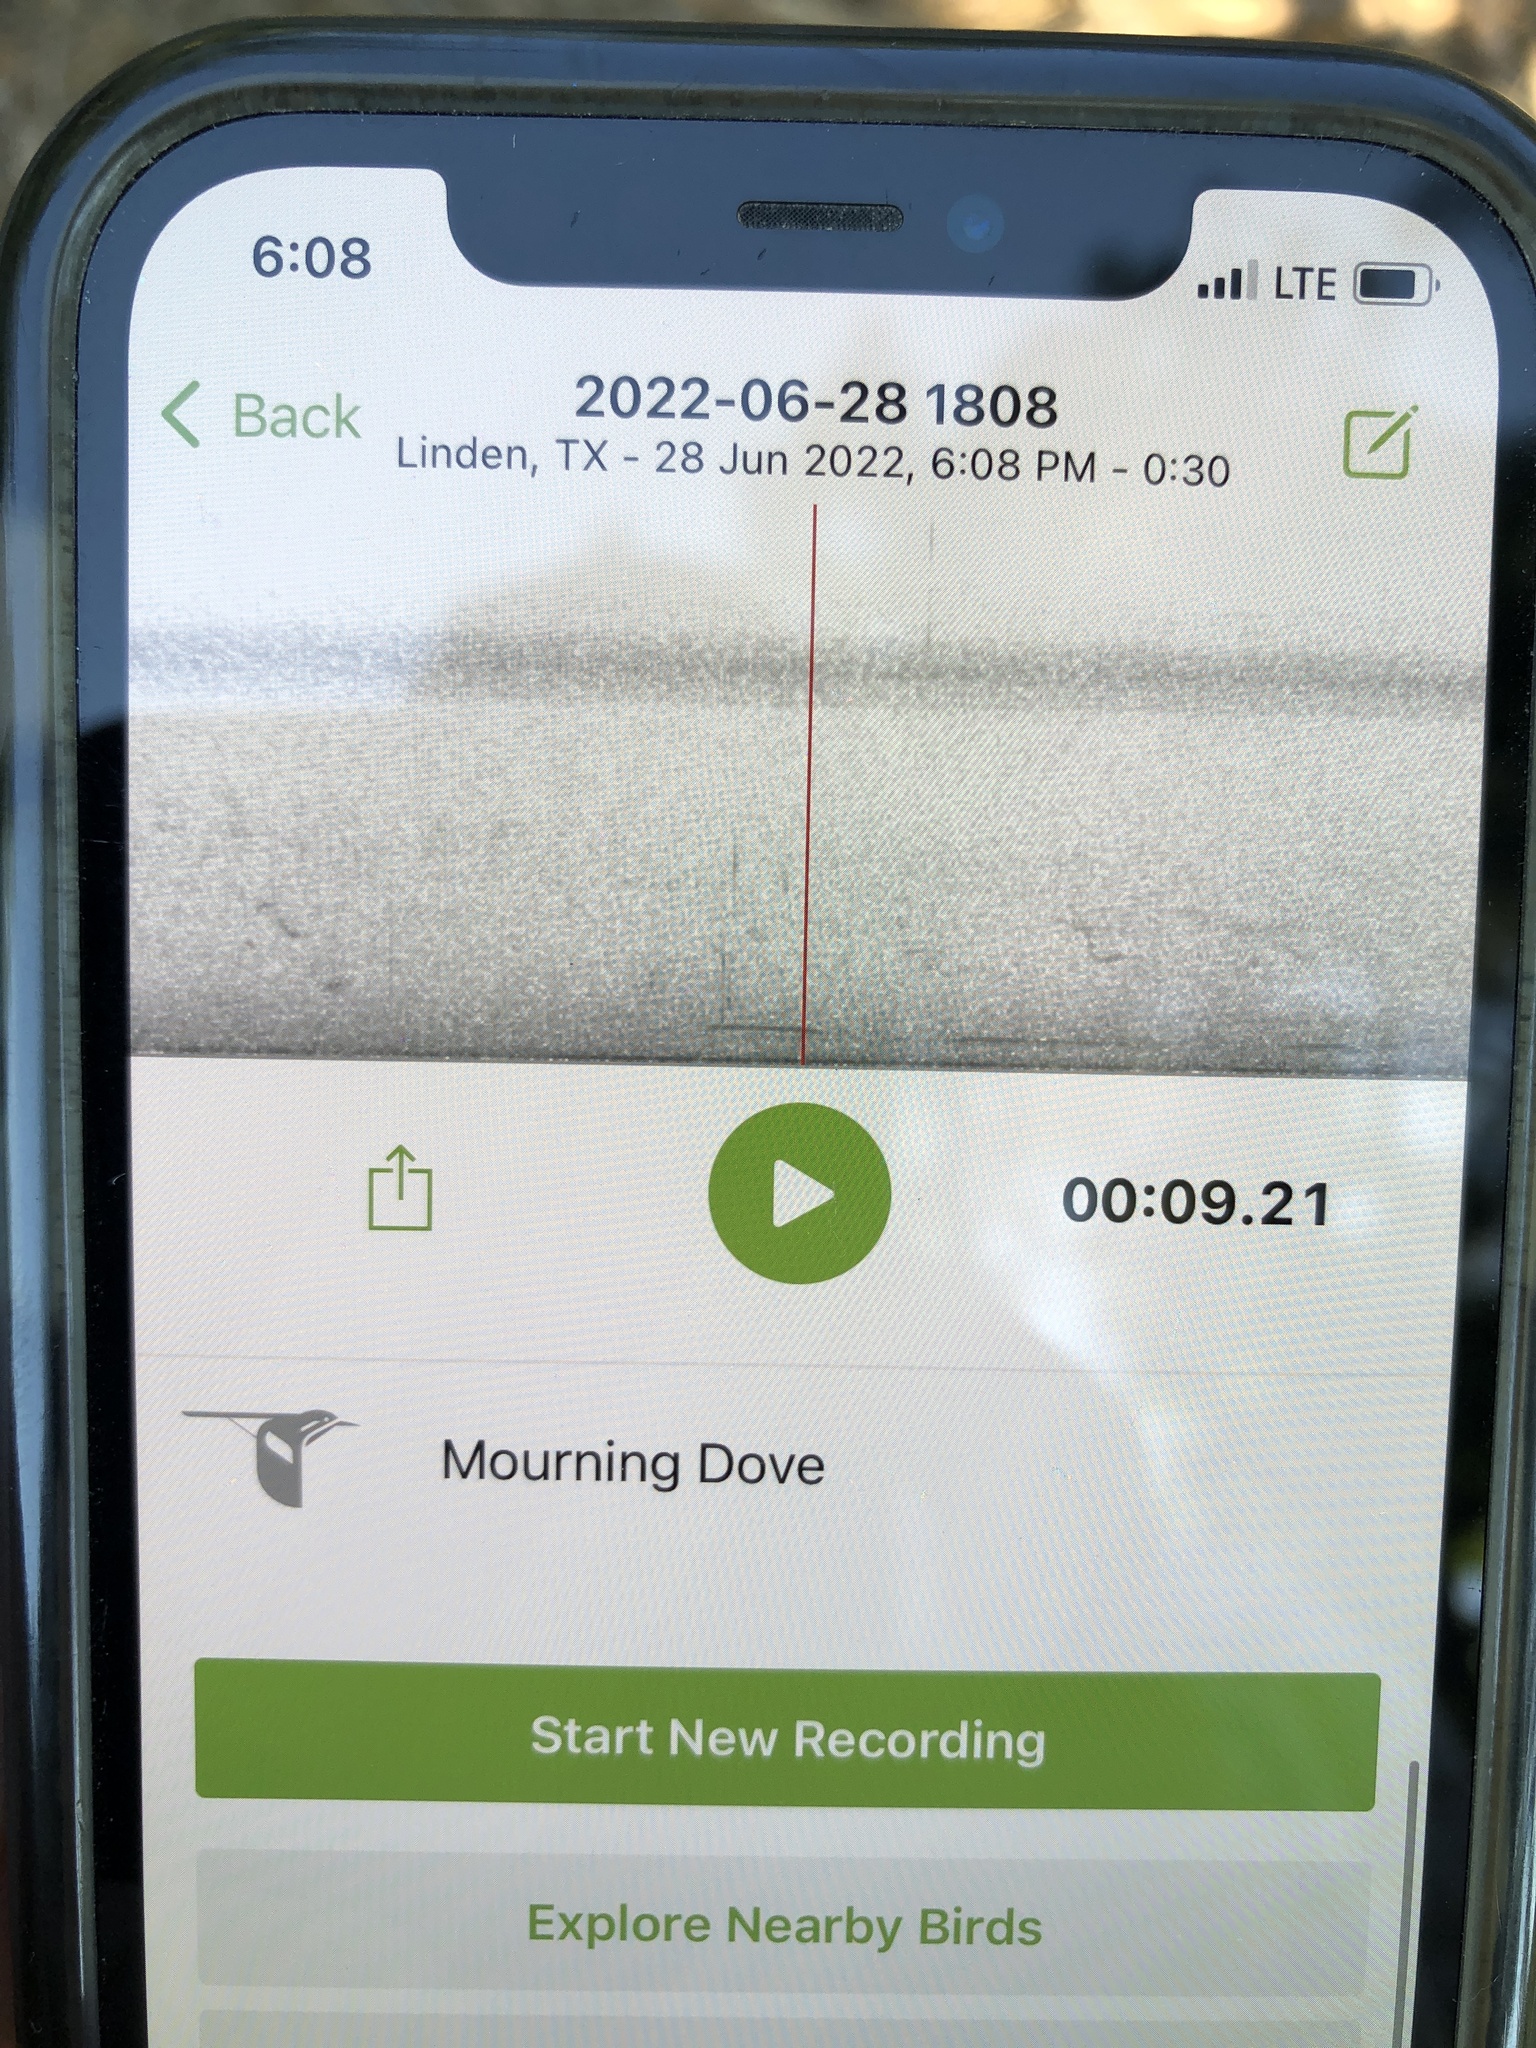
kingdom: Animalia
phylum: Chordata
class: Aves
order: Columbiformes
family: Columbidae
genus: Zenaida
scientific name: Zenaida macroura
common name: Mourning dove
